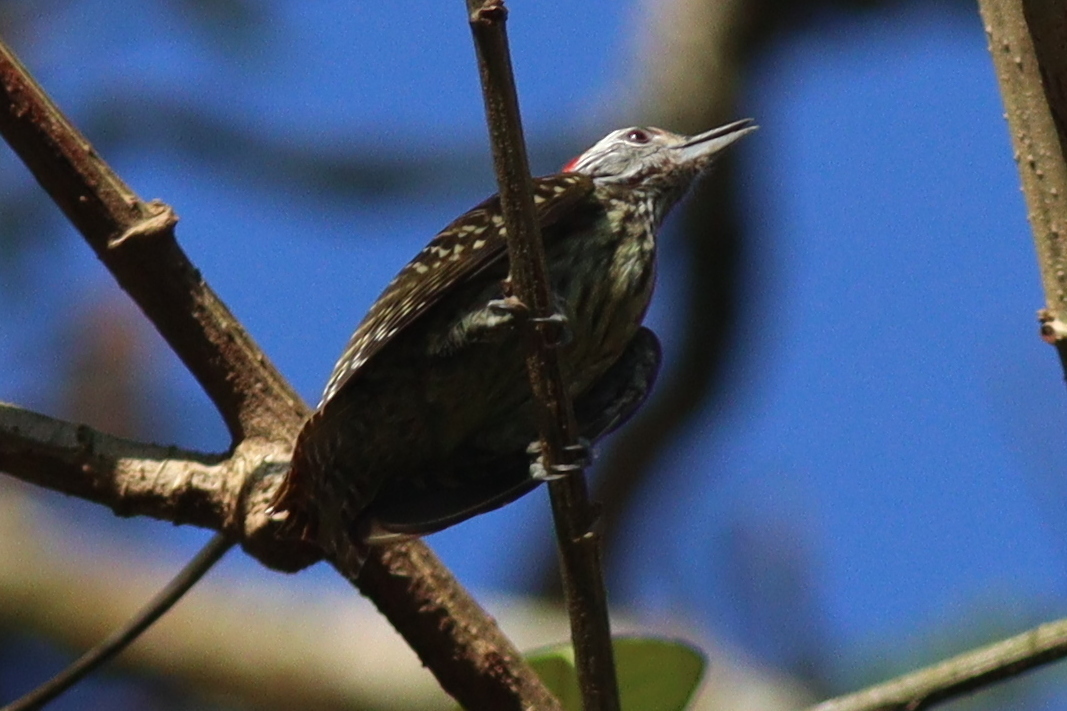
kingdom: Animalia
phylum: Chordata
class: Aves
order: Piciformes
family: Picidae
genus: Dendropicos
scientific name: Dendropicos fuscescens
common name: Cardinal woodpecker
